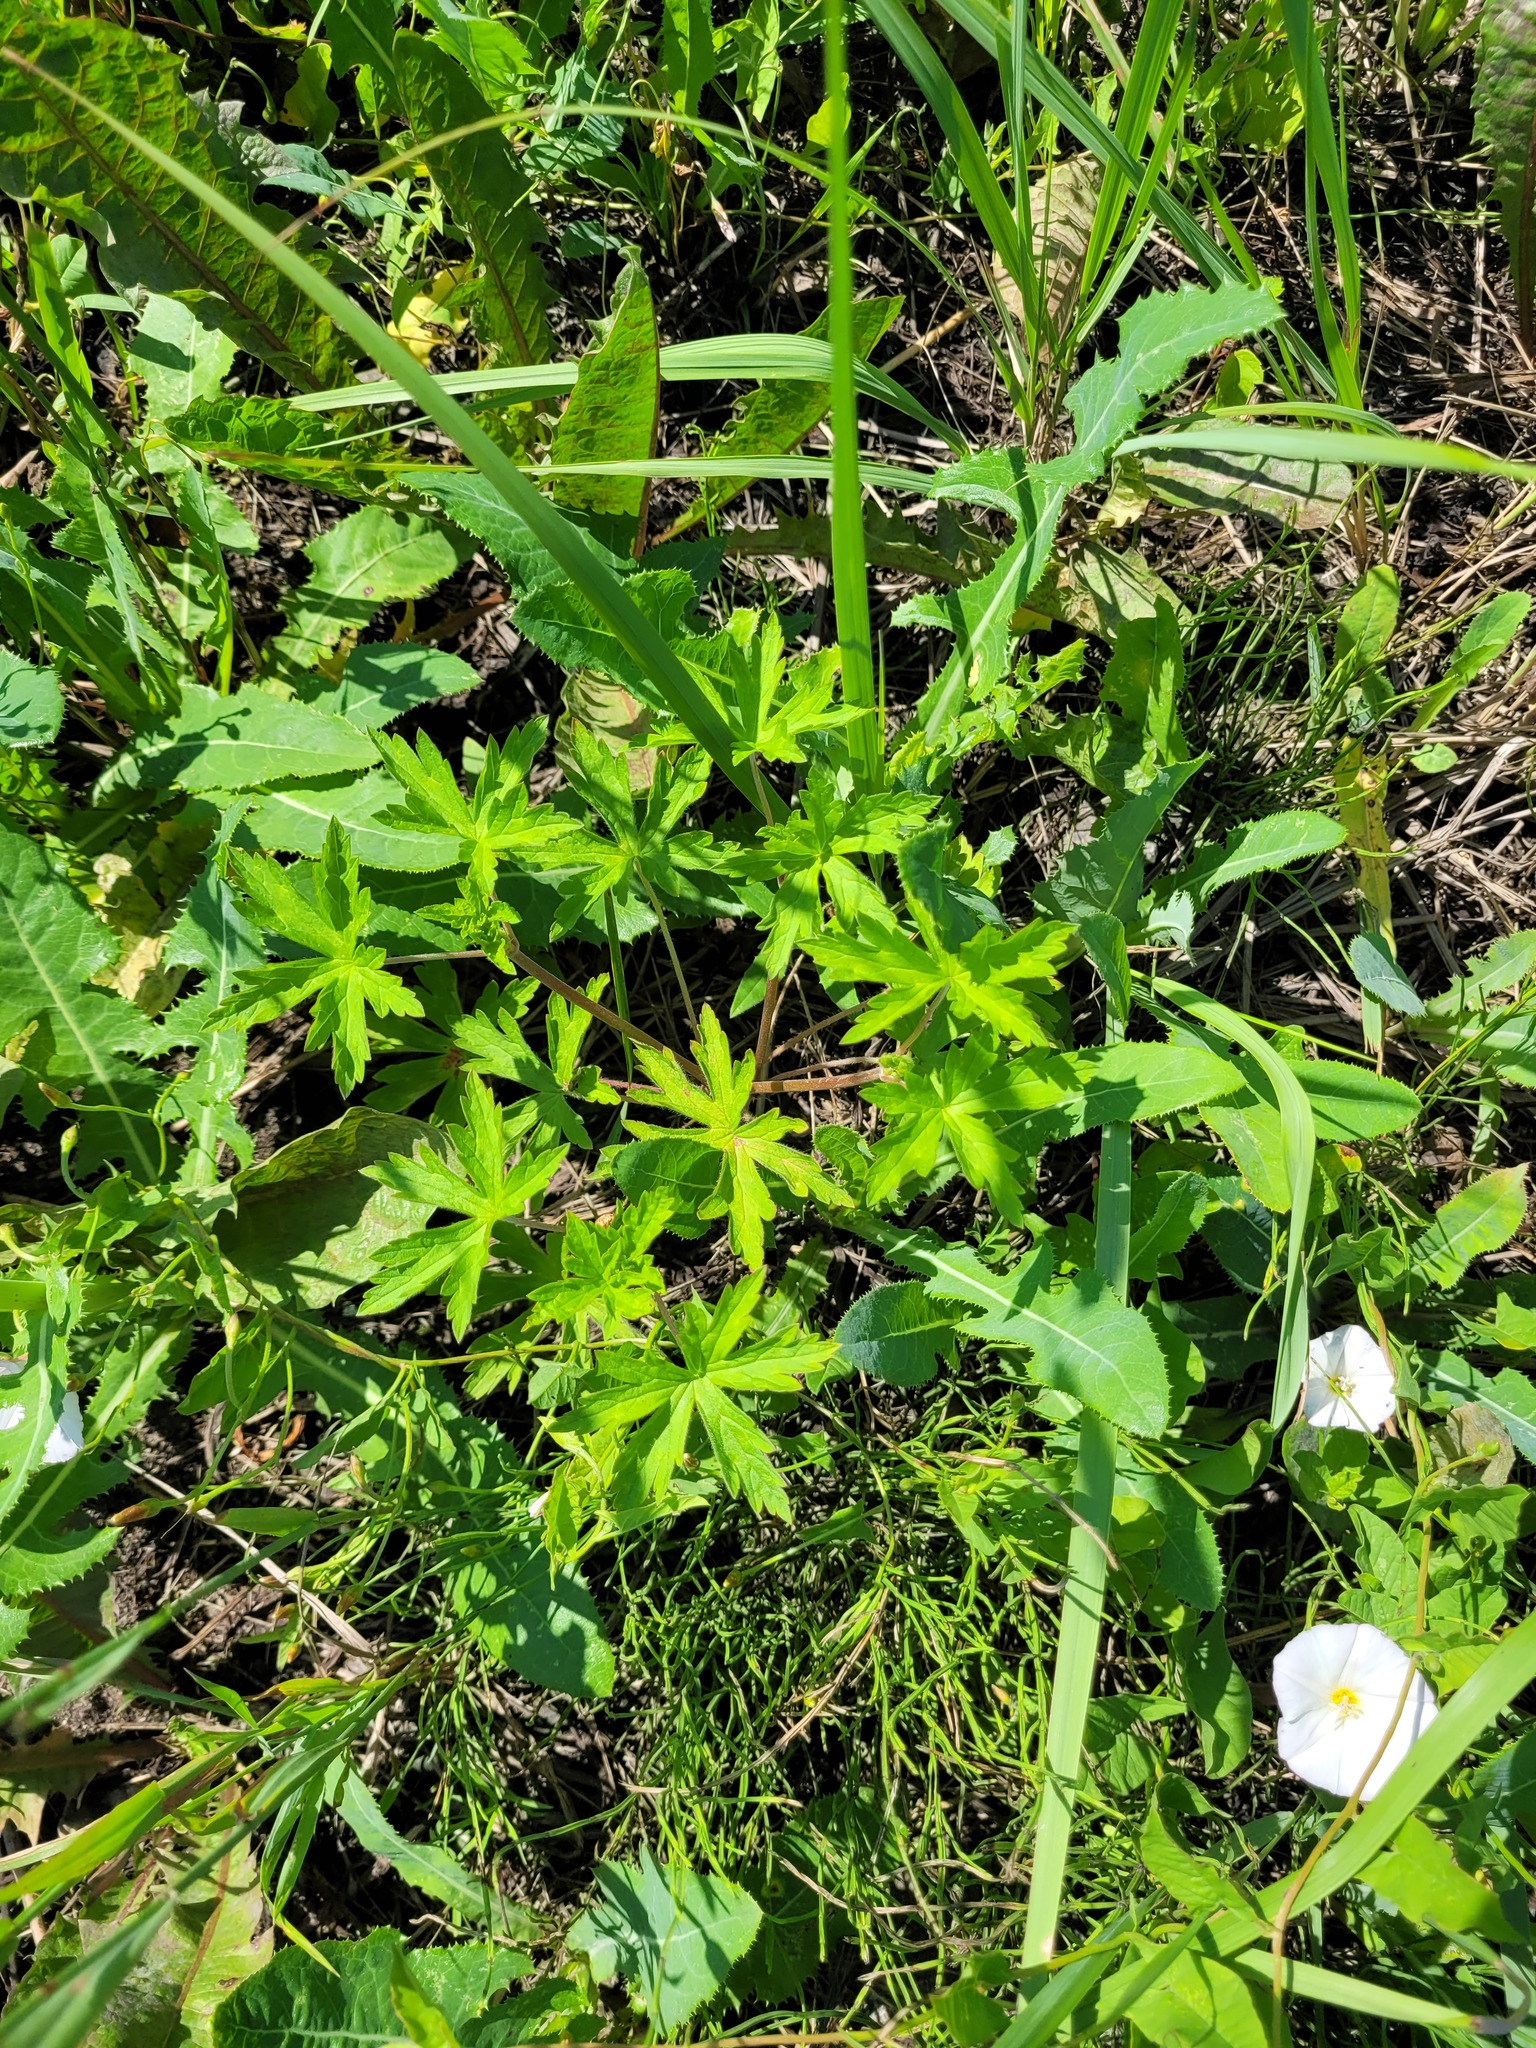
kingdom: Plantae
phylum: Tracheophyta
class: Magnoliopsida
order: Geraniales
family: Geraniaceae
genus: Geranium
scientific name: Geranium sibiricum
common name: Siberian crane's-bill
